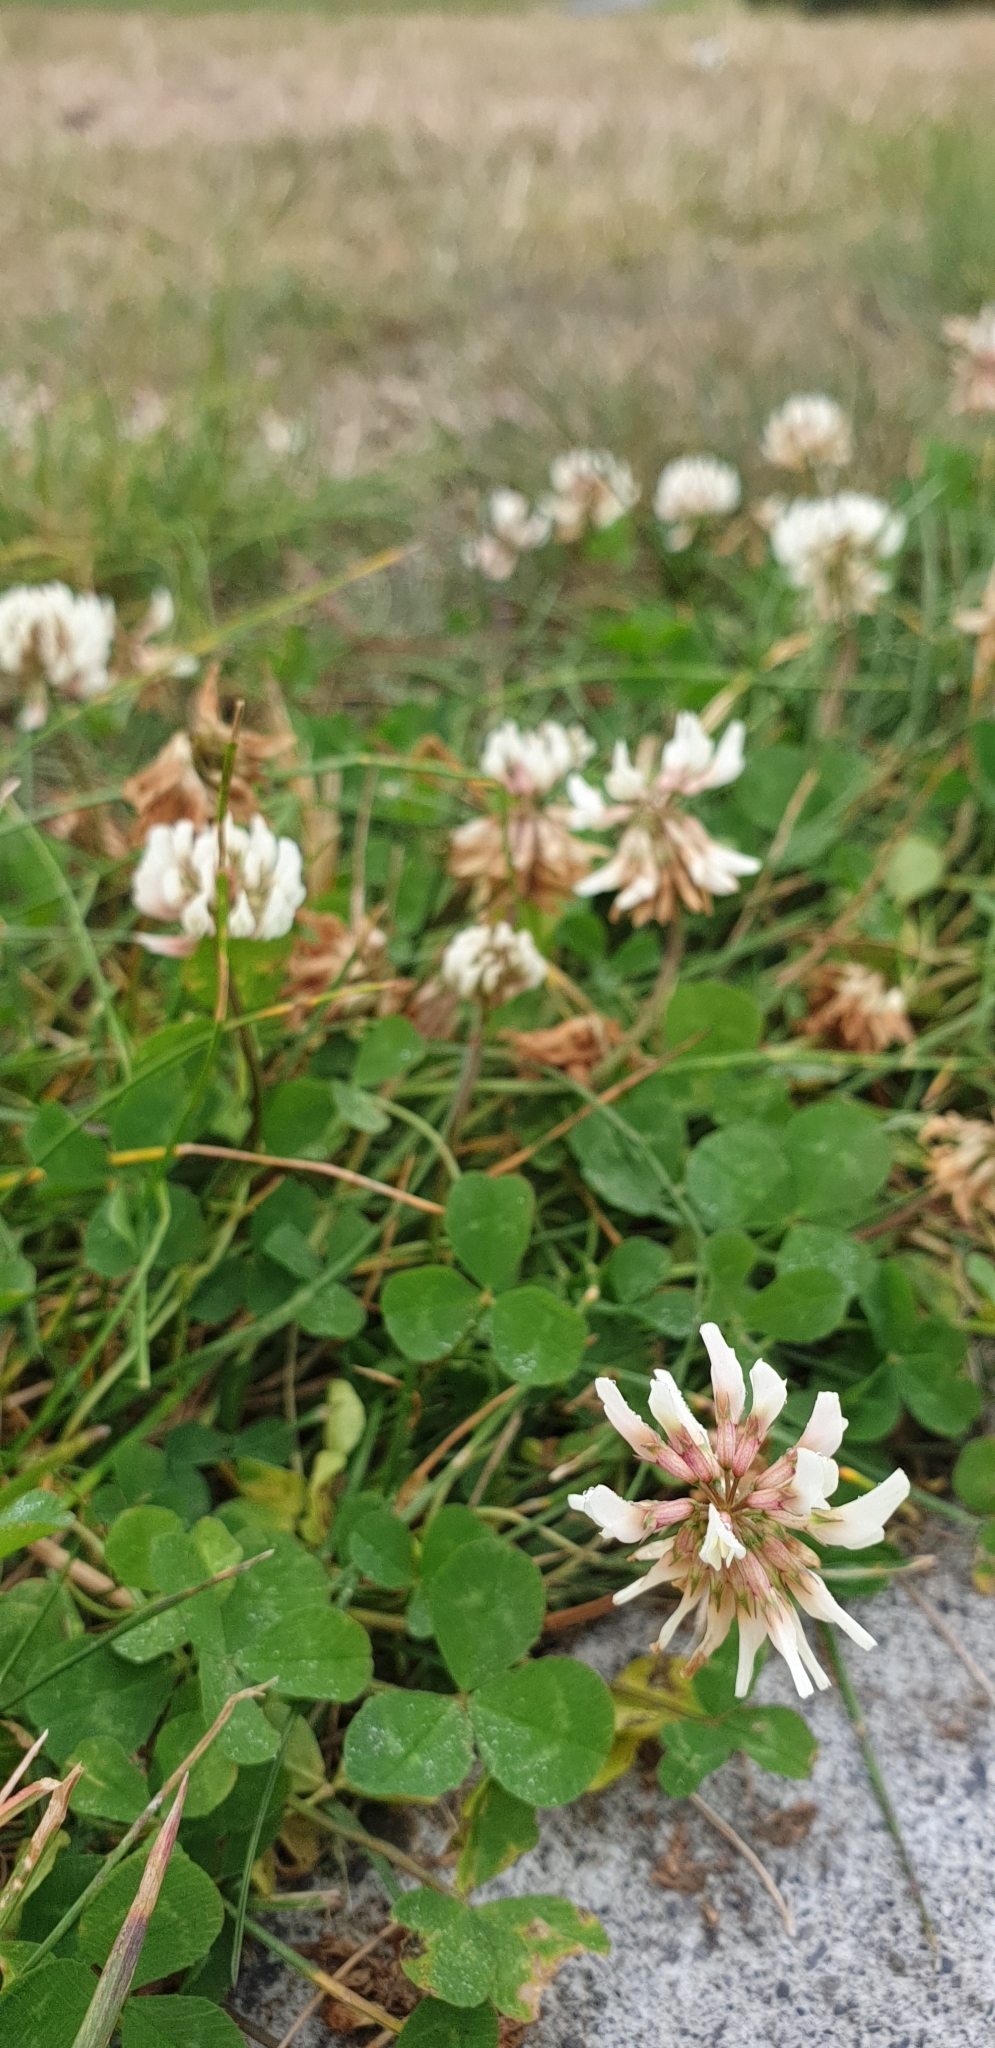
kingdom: Plantae
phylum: Tracheophyta
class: Magnoliopsida
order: Fabales
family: Fabaceae
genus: Trifolium
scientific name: Trifolium repens
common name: White clover
